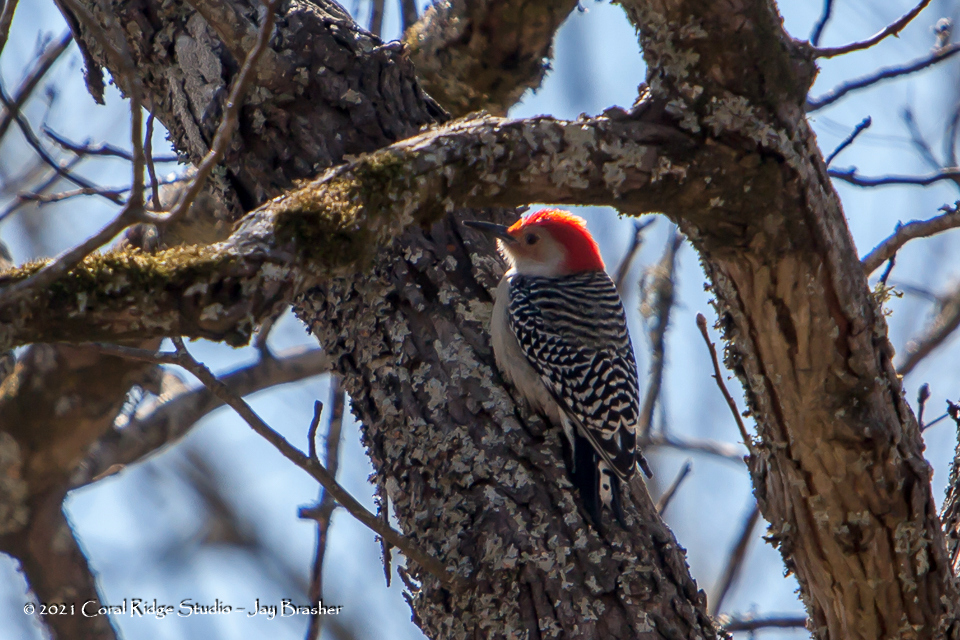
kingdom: Animalia
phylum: Chordata
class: Aves
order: Piciformes
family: Picidae
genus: Melanerpes
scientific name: Melanerpes carolinus
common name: Red-bellied woodpecker
